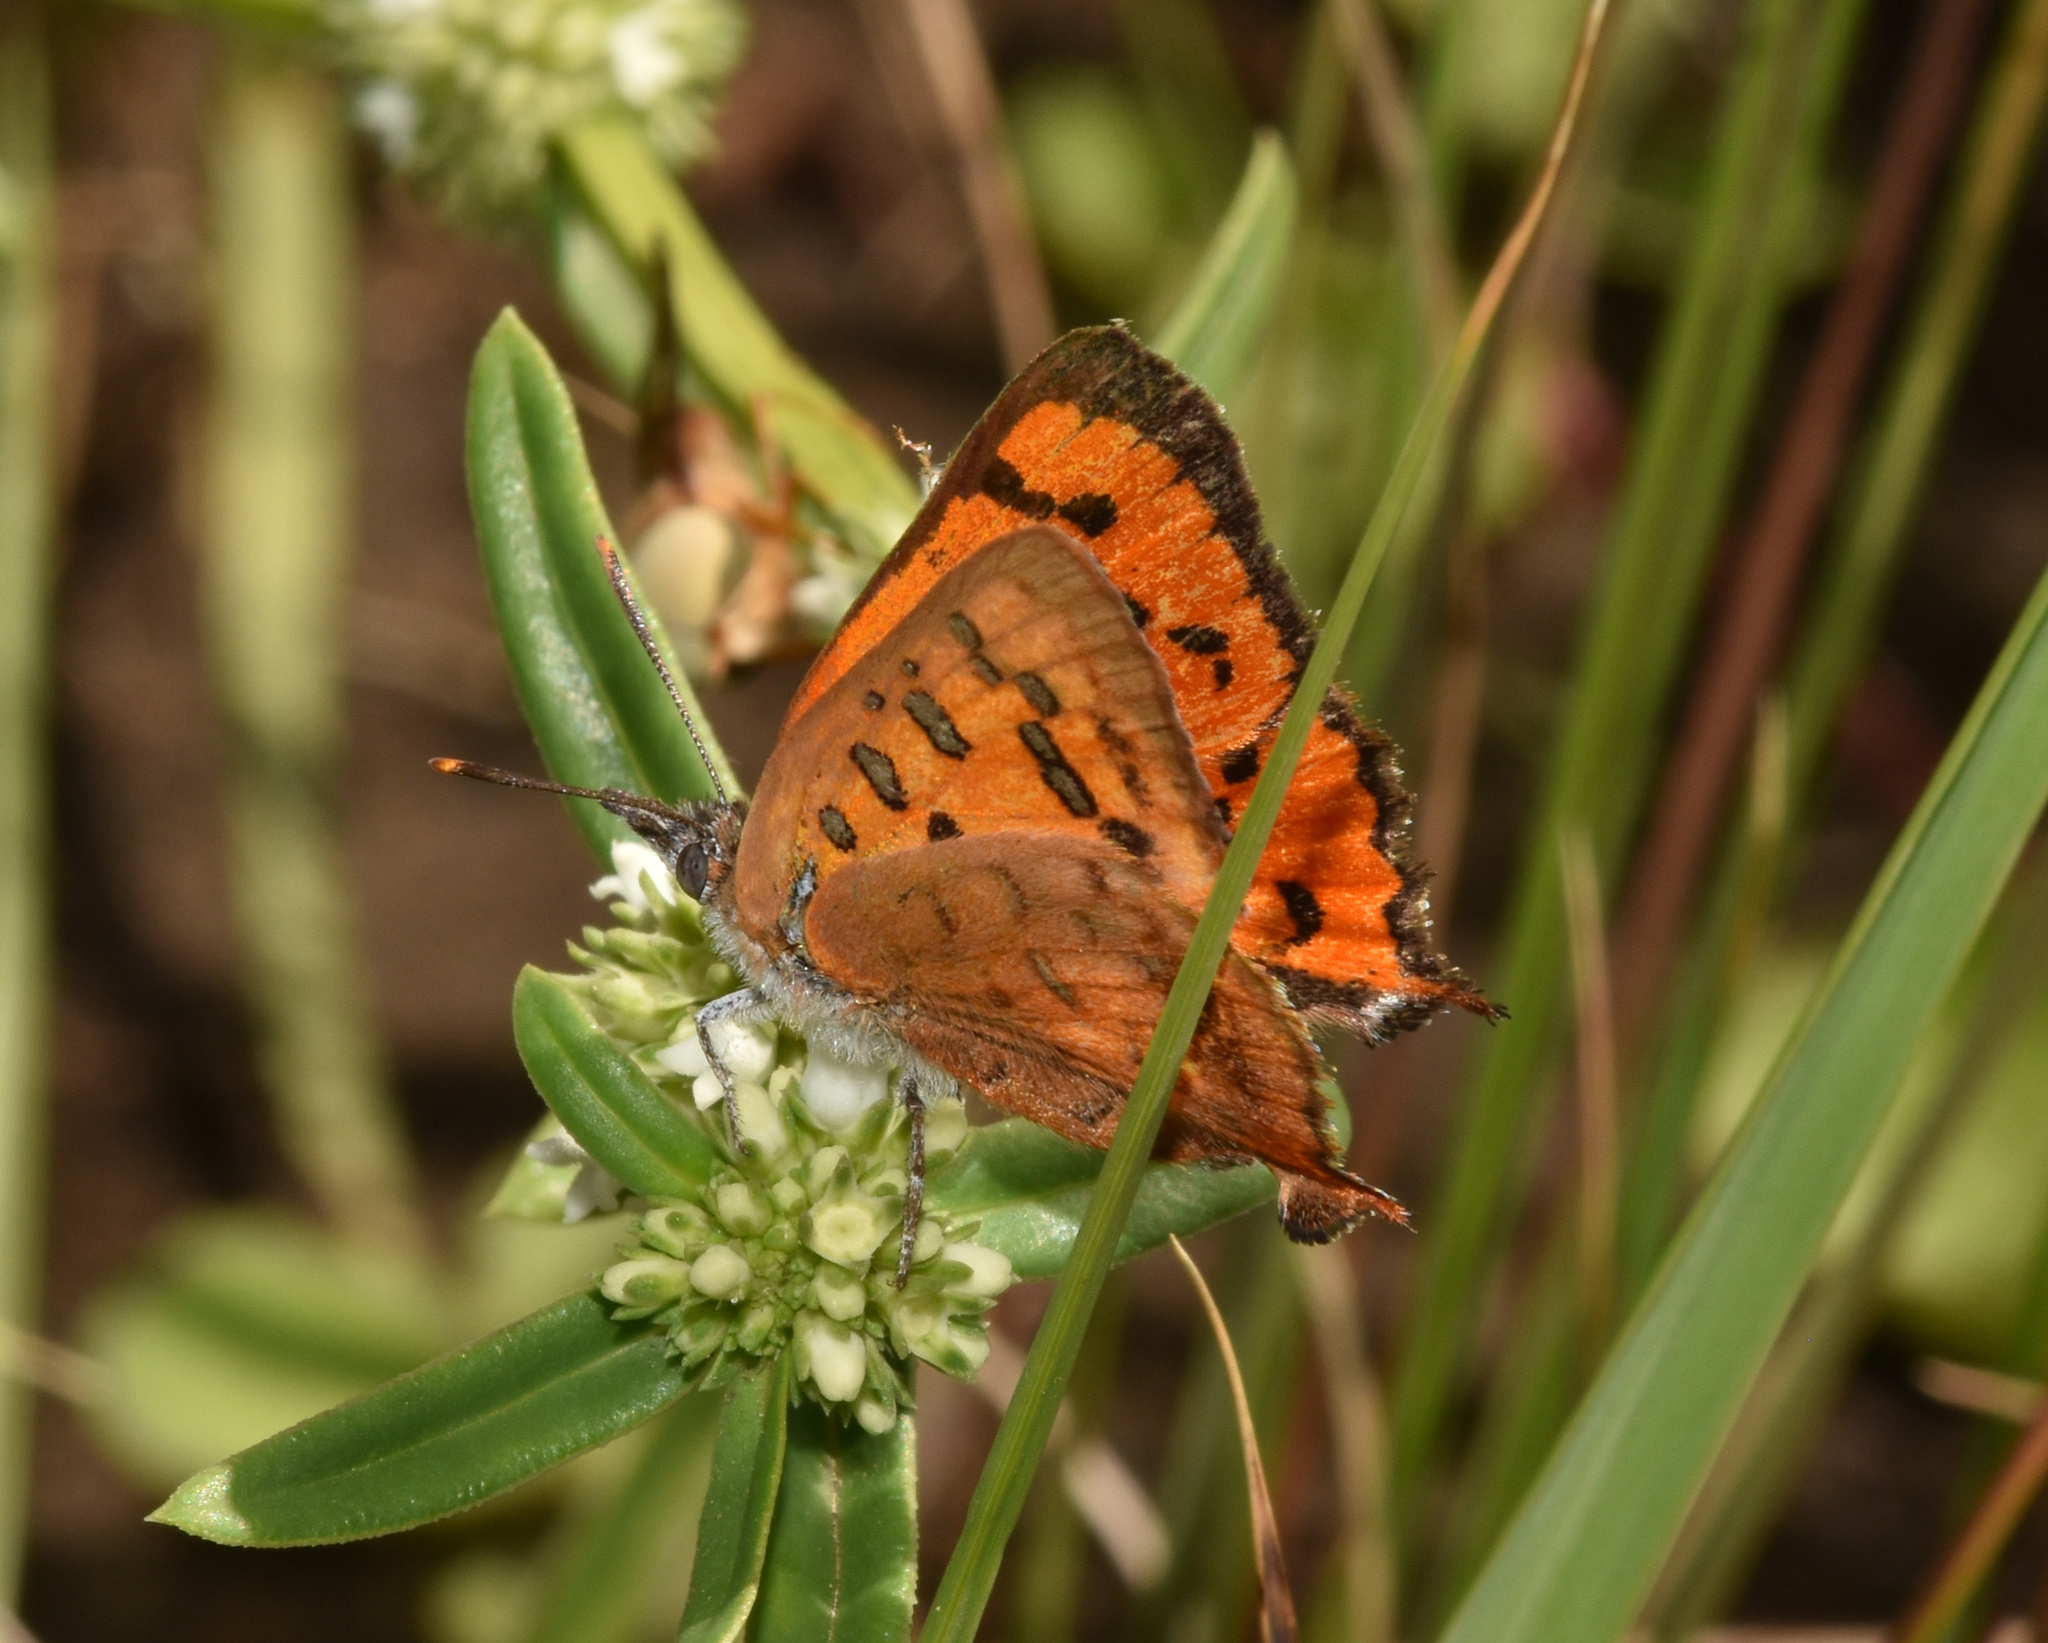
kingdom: Animalia
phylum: Arthropoda
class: Insecta
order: Lepidoptera
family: Lycaenidae
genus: Zeritis
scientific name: Zeritis chrysaor
